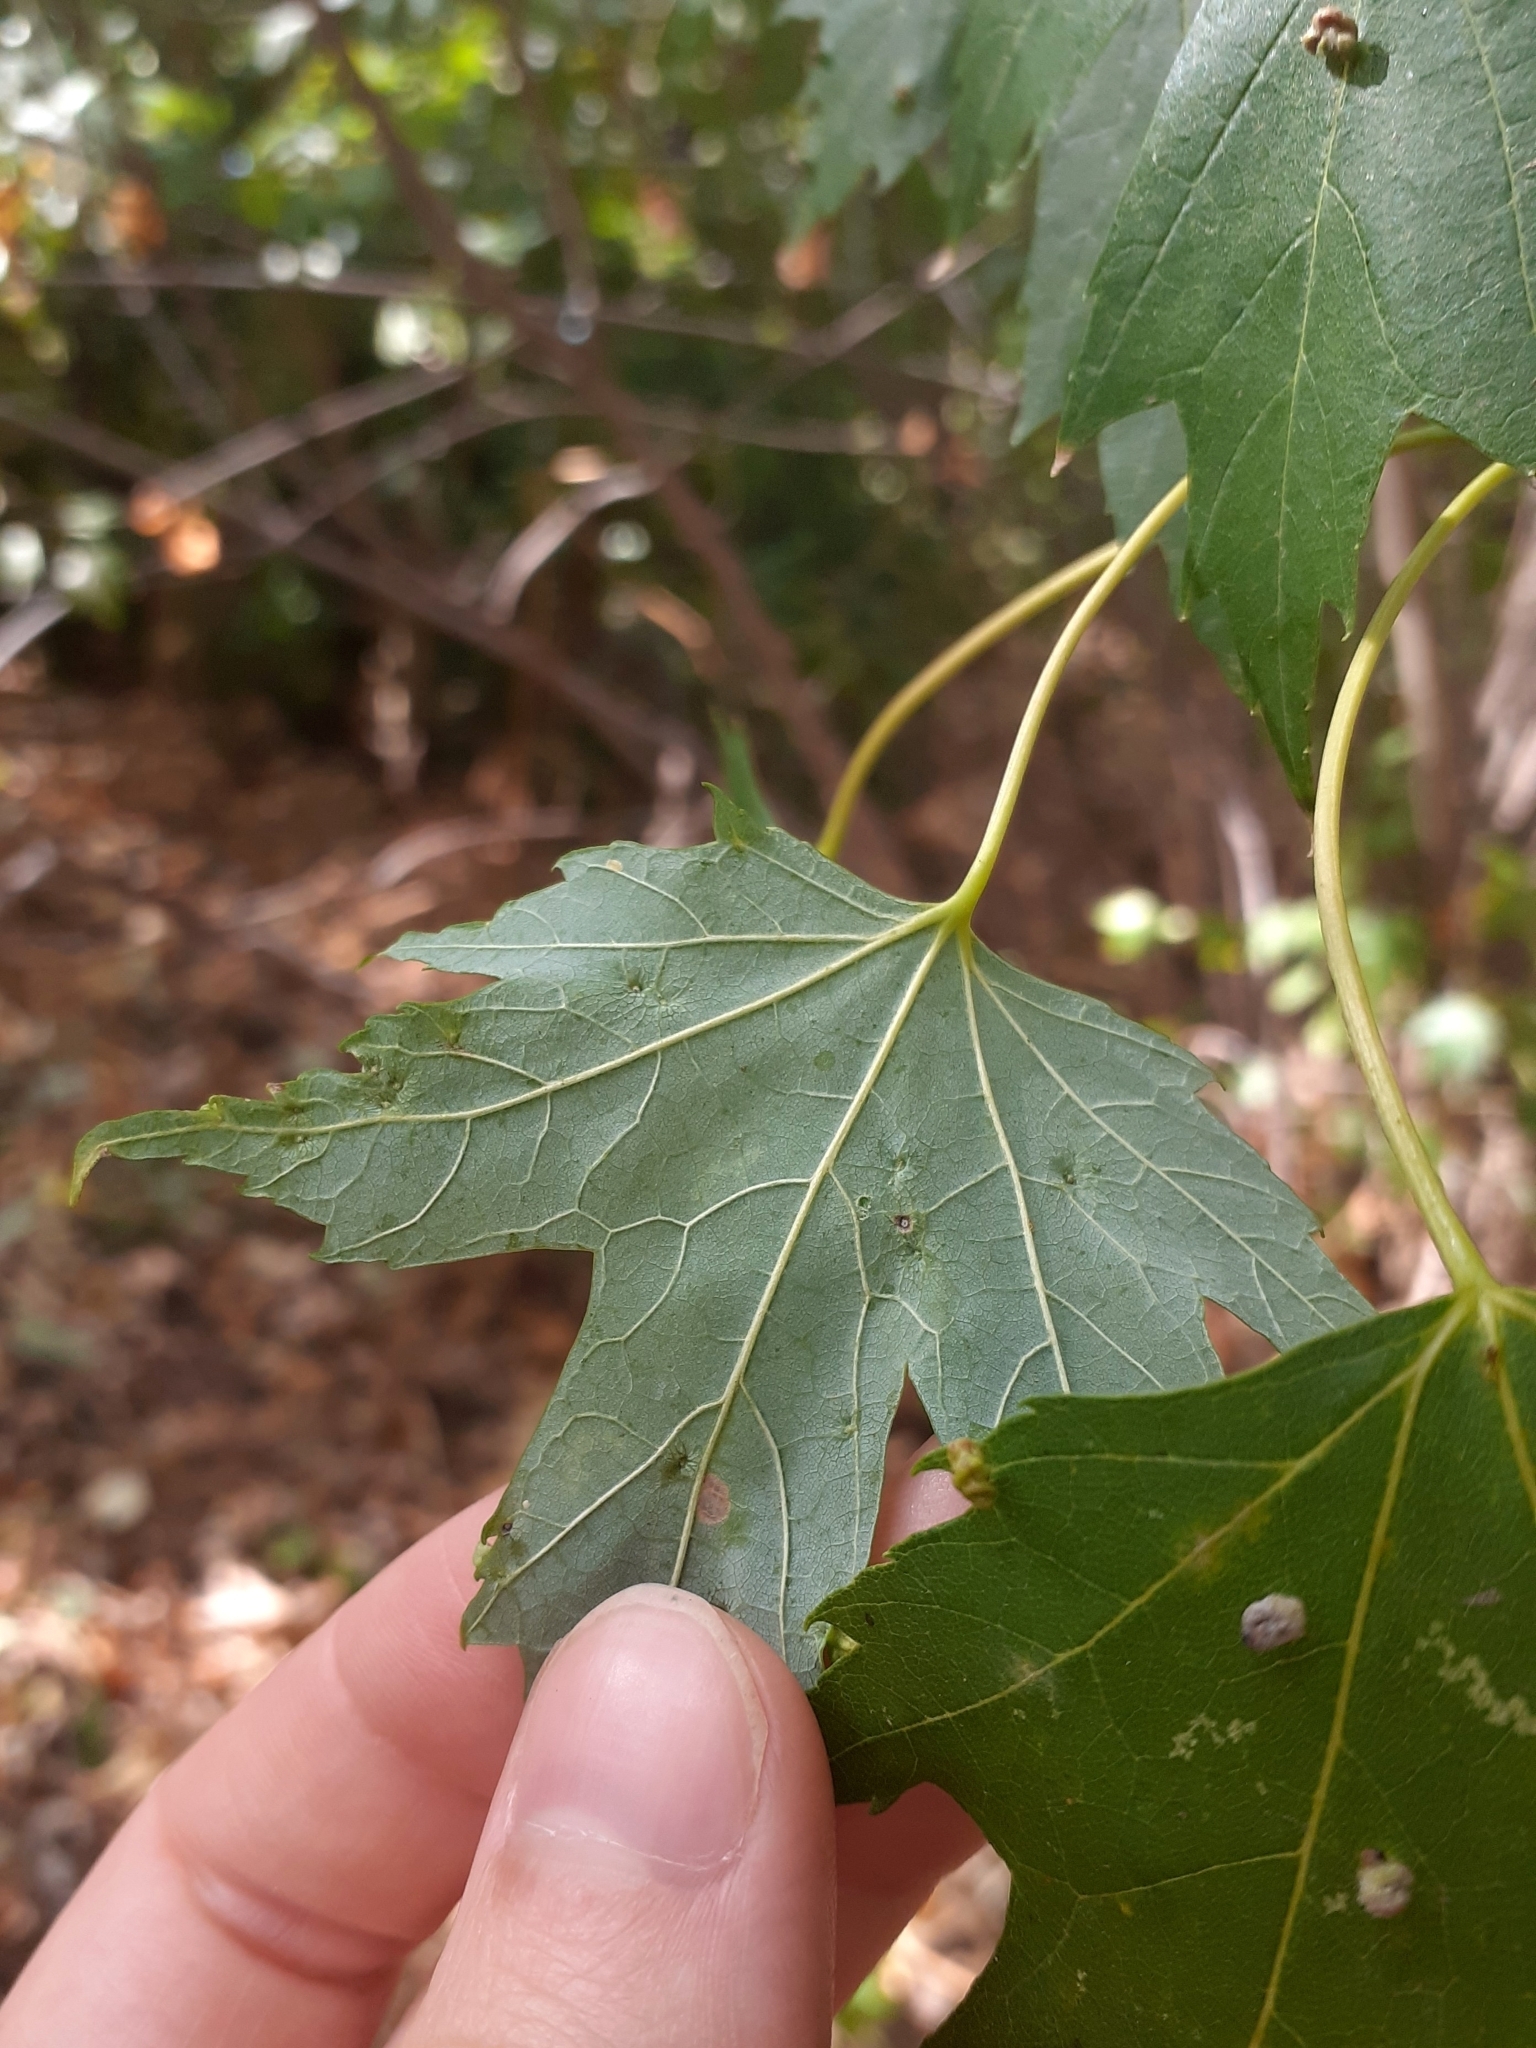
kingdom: Animalia
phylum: Arthropoda
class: Arachnida
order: Trombidiformes
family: Eriophyidae
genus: Vasates
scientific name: Vasates quadripedes
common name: Maple bladder gall mite
